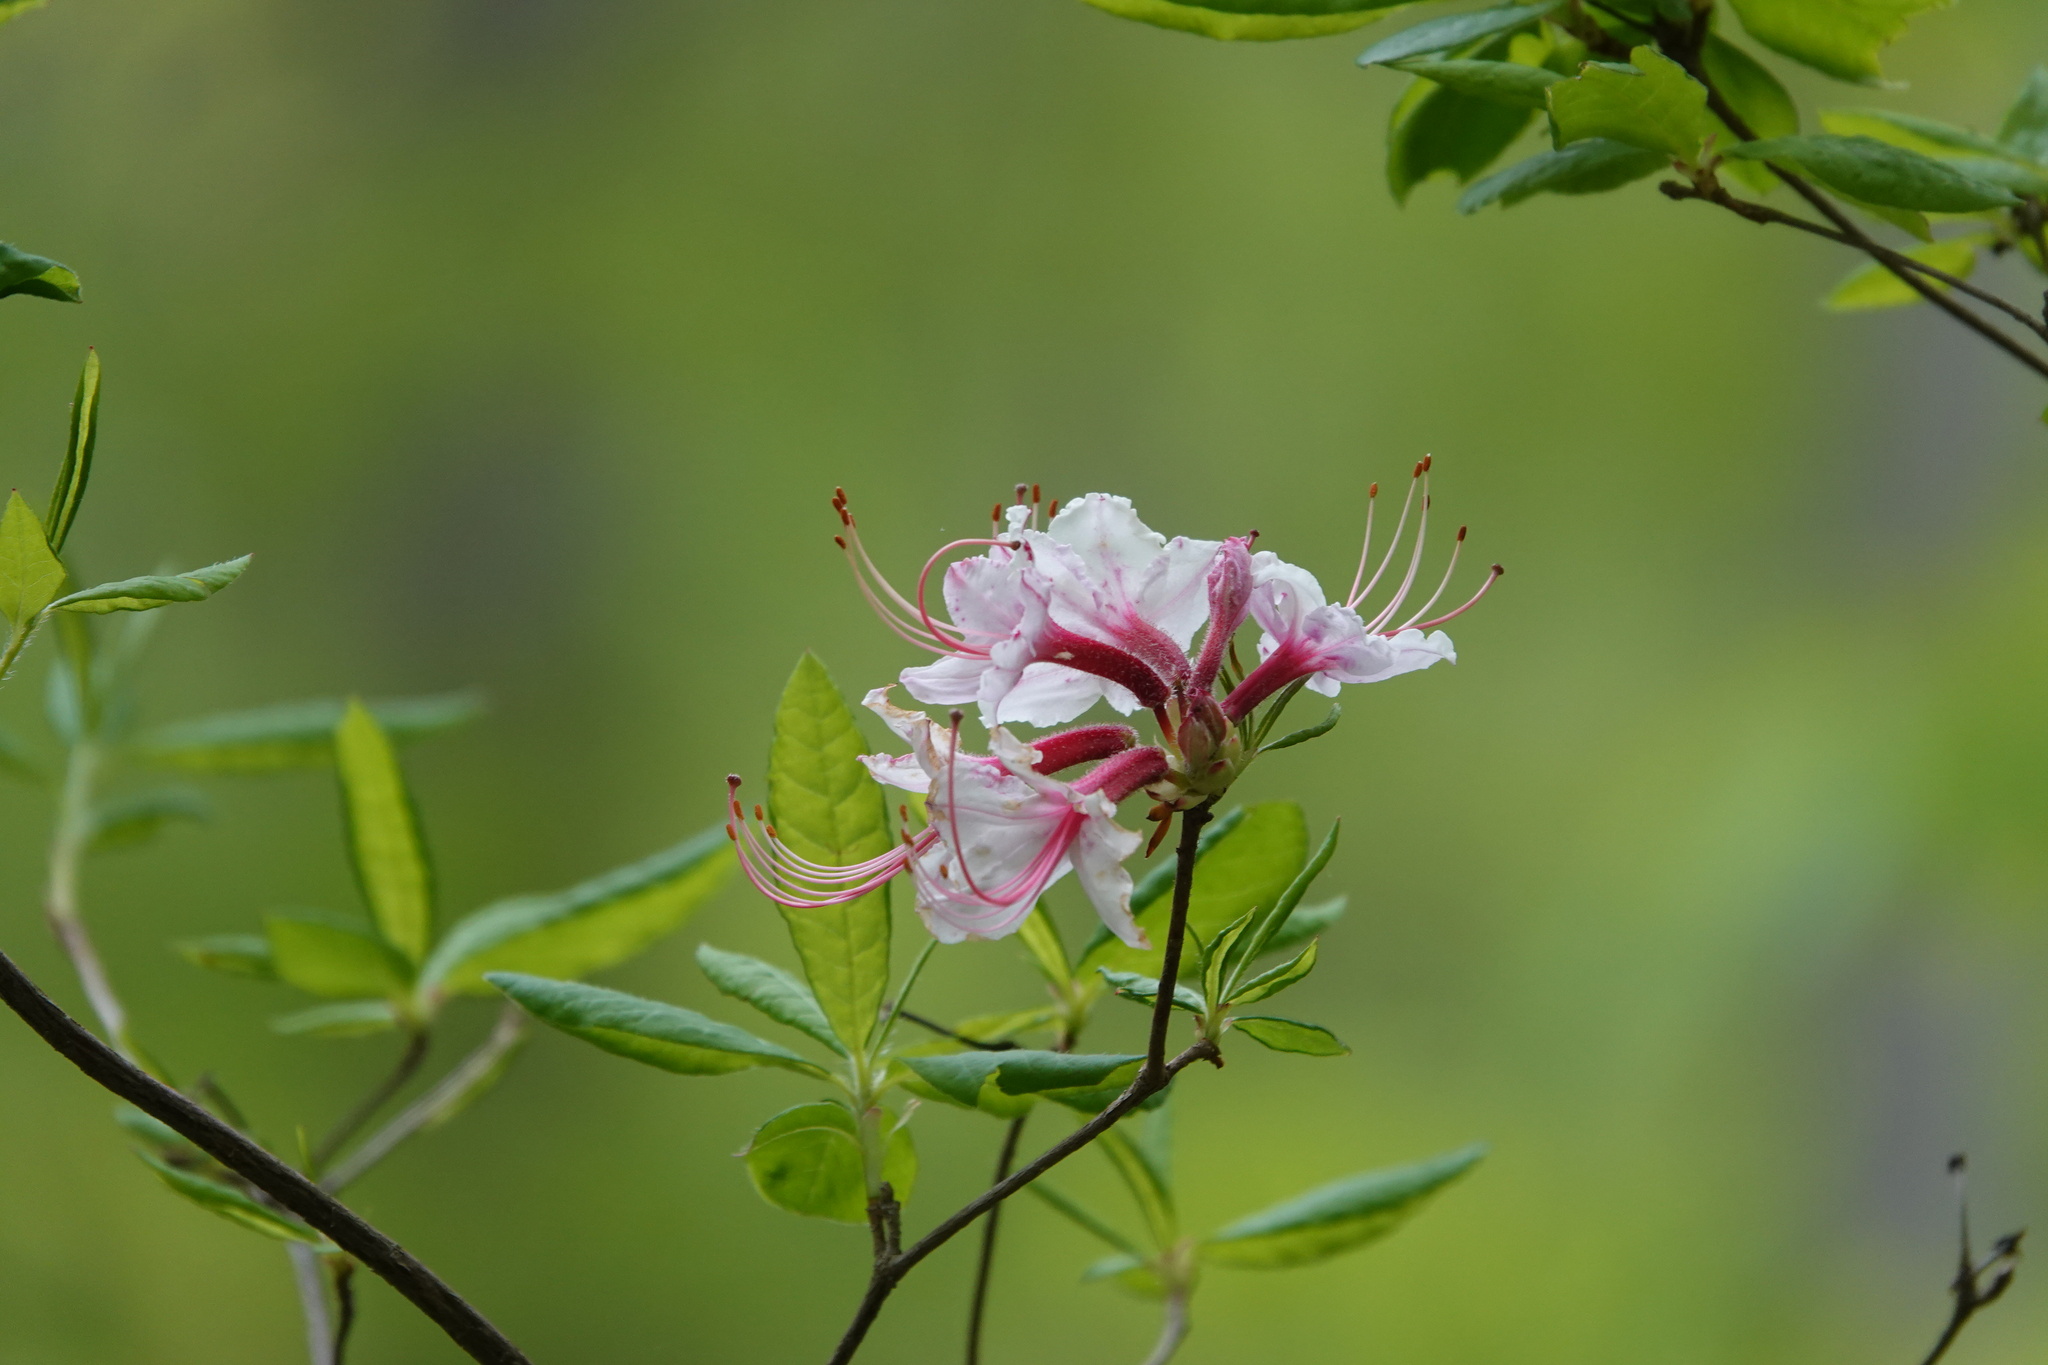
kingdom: Plantae
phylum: Tracheophyta
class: Magnoliopsida
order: Ericales
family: Ericaceae
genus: Rhododendron
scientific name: Rhododendron periclymenoides
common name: Election-pink
